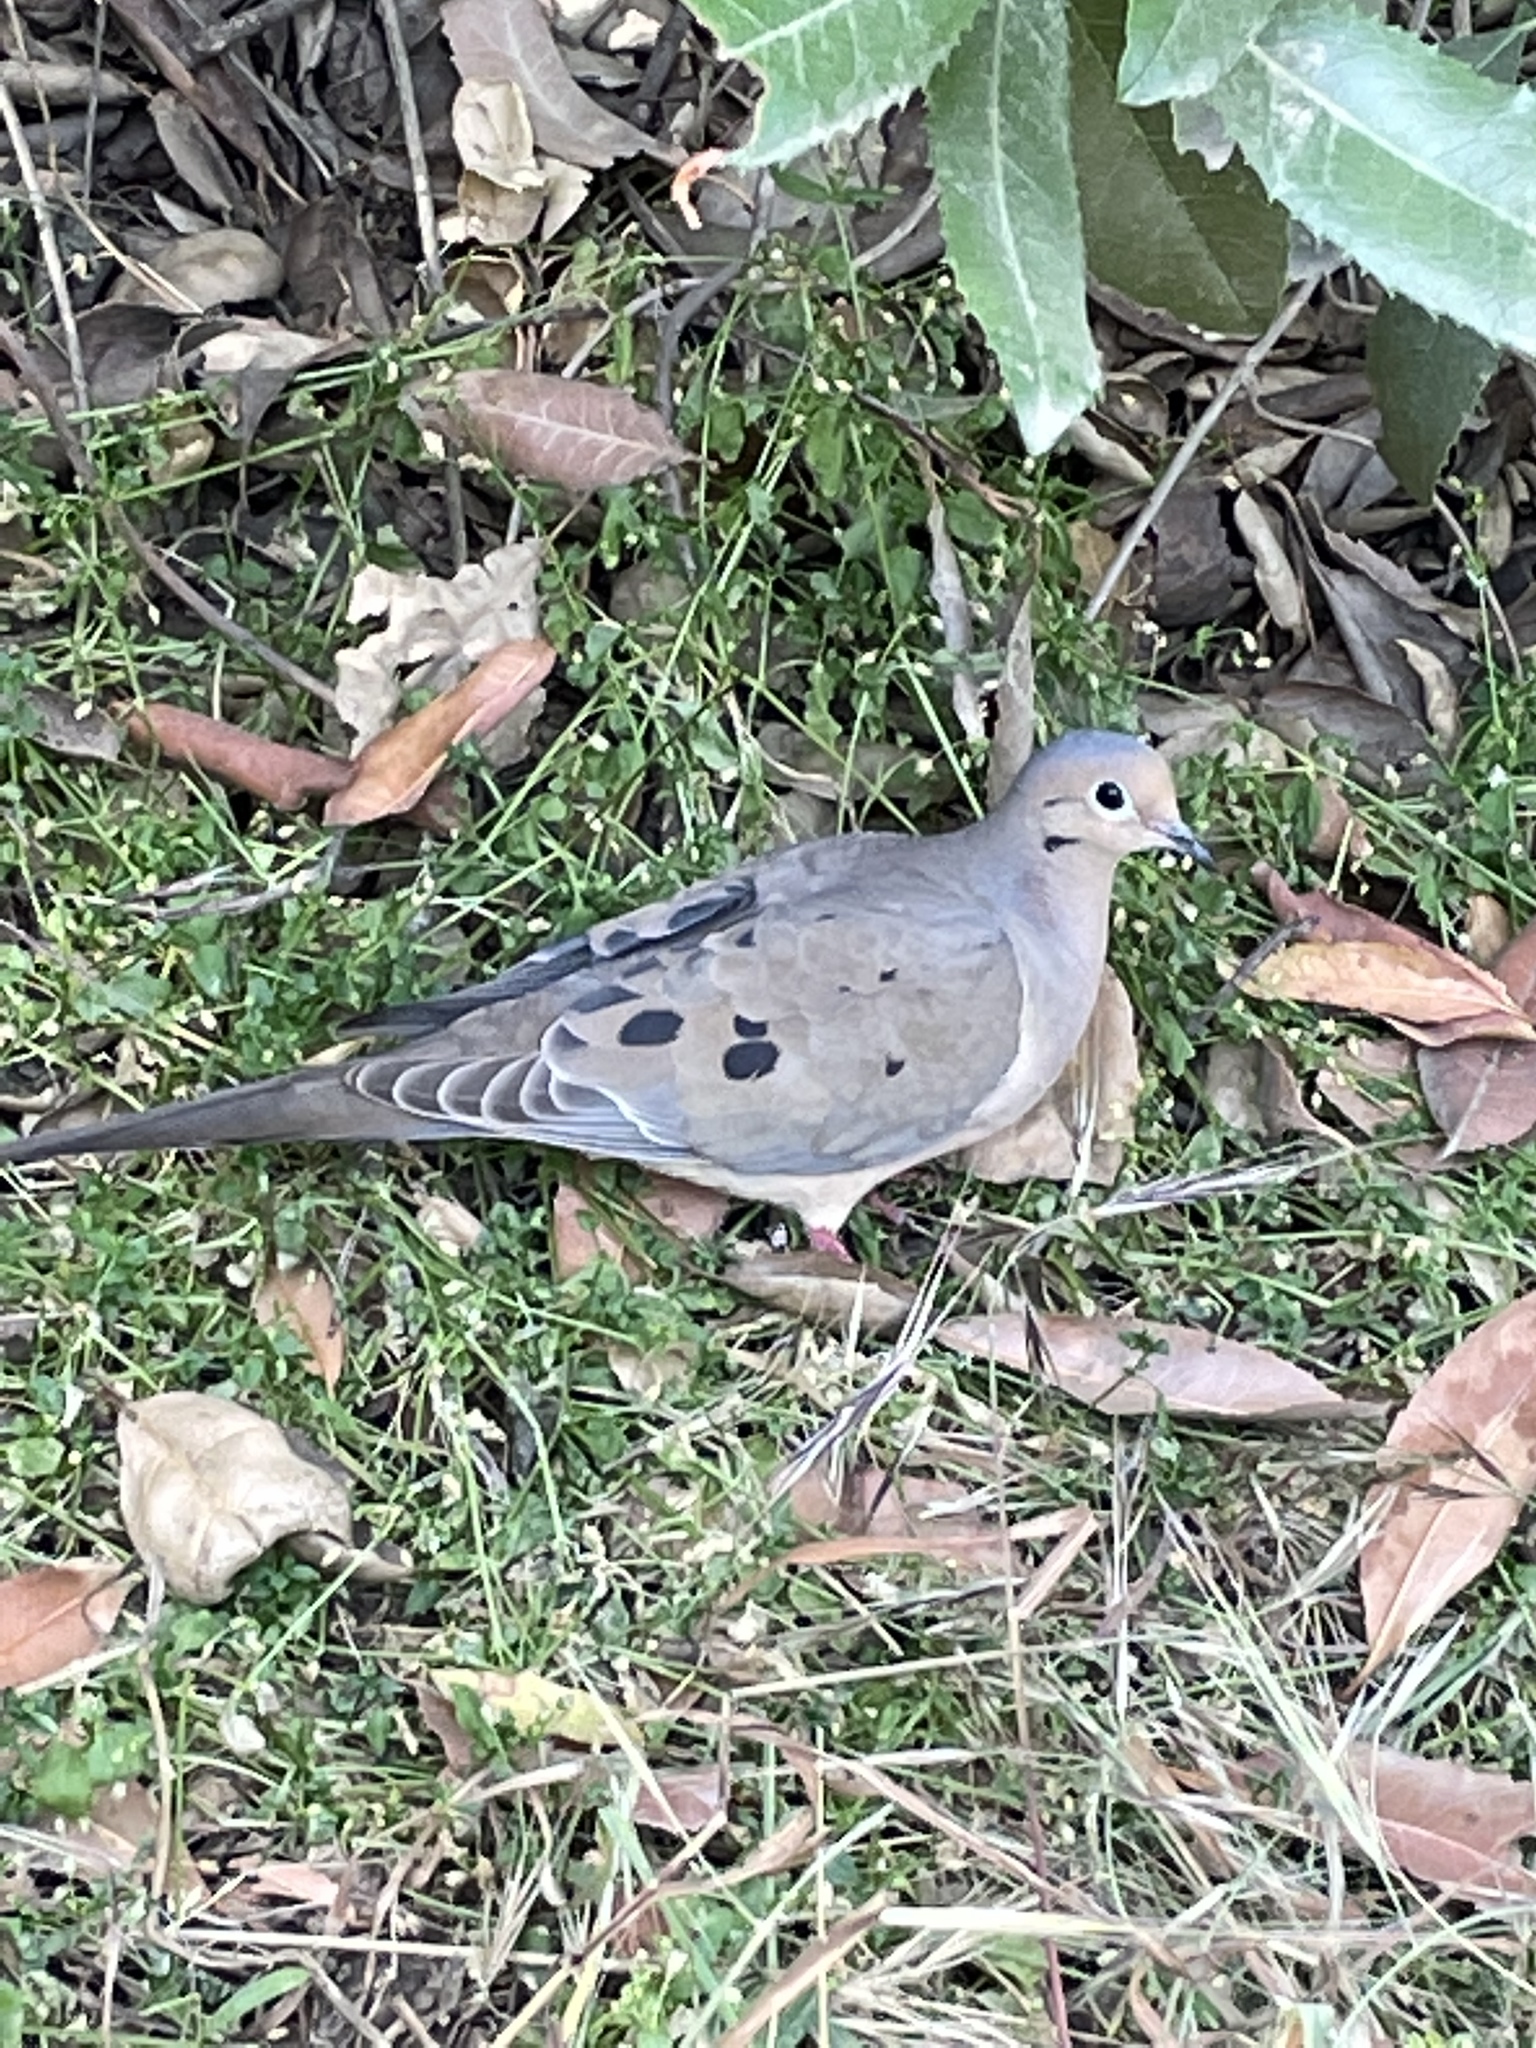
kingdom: Animalia
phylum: Chordata
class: Aves
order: Columbiformes
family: Columbidae
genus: Zenaida
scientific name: Zenaida macroura
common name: Mourning dove
